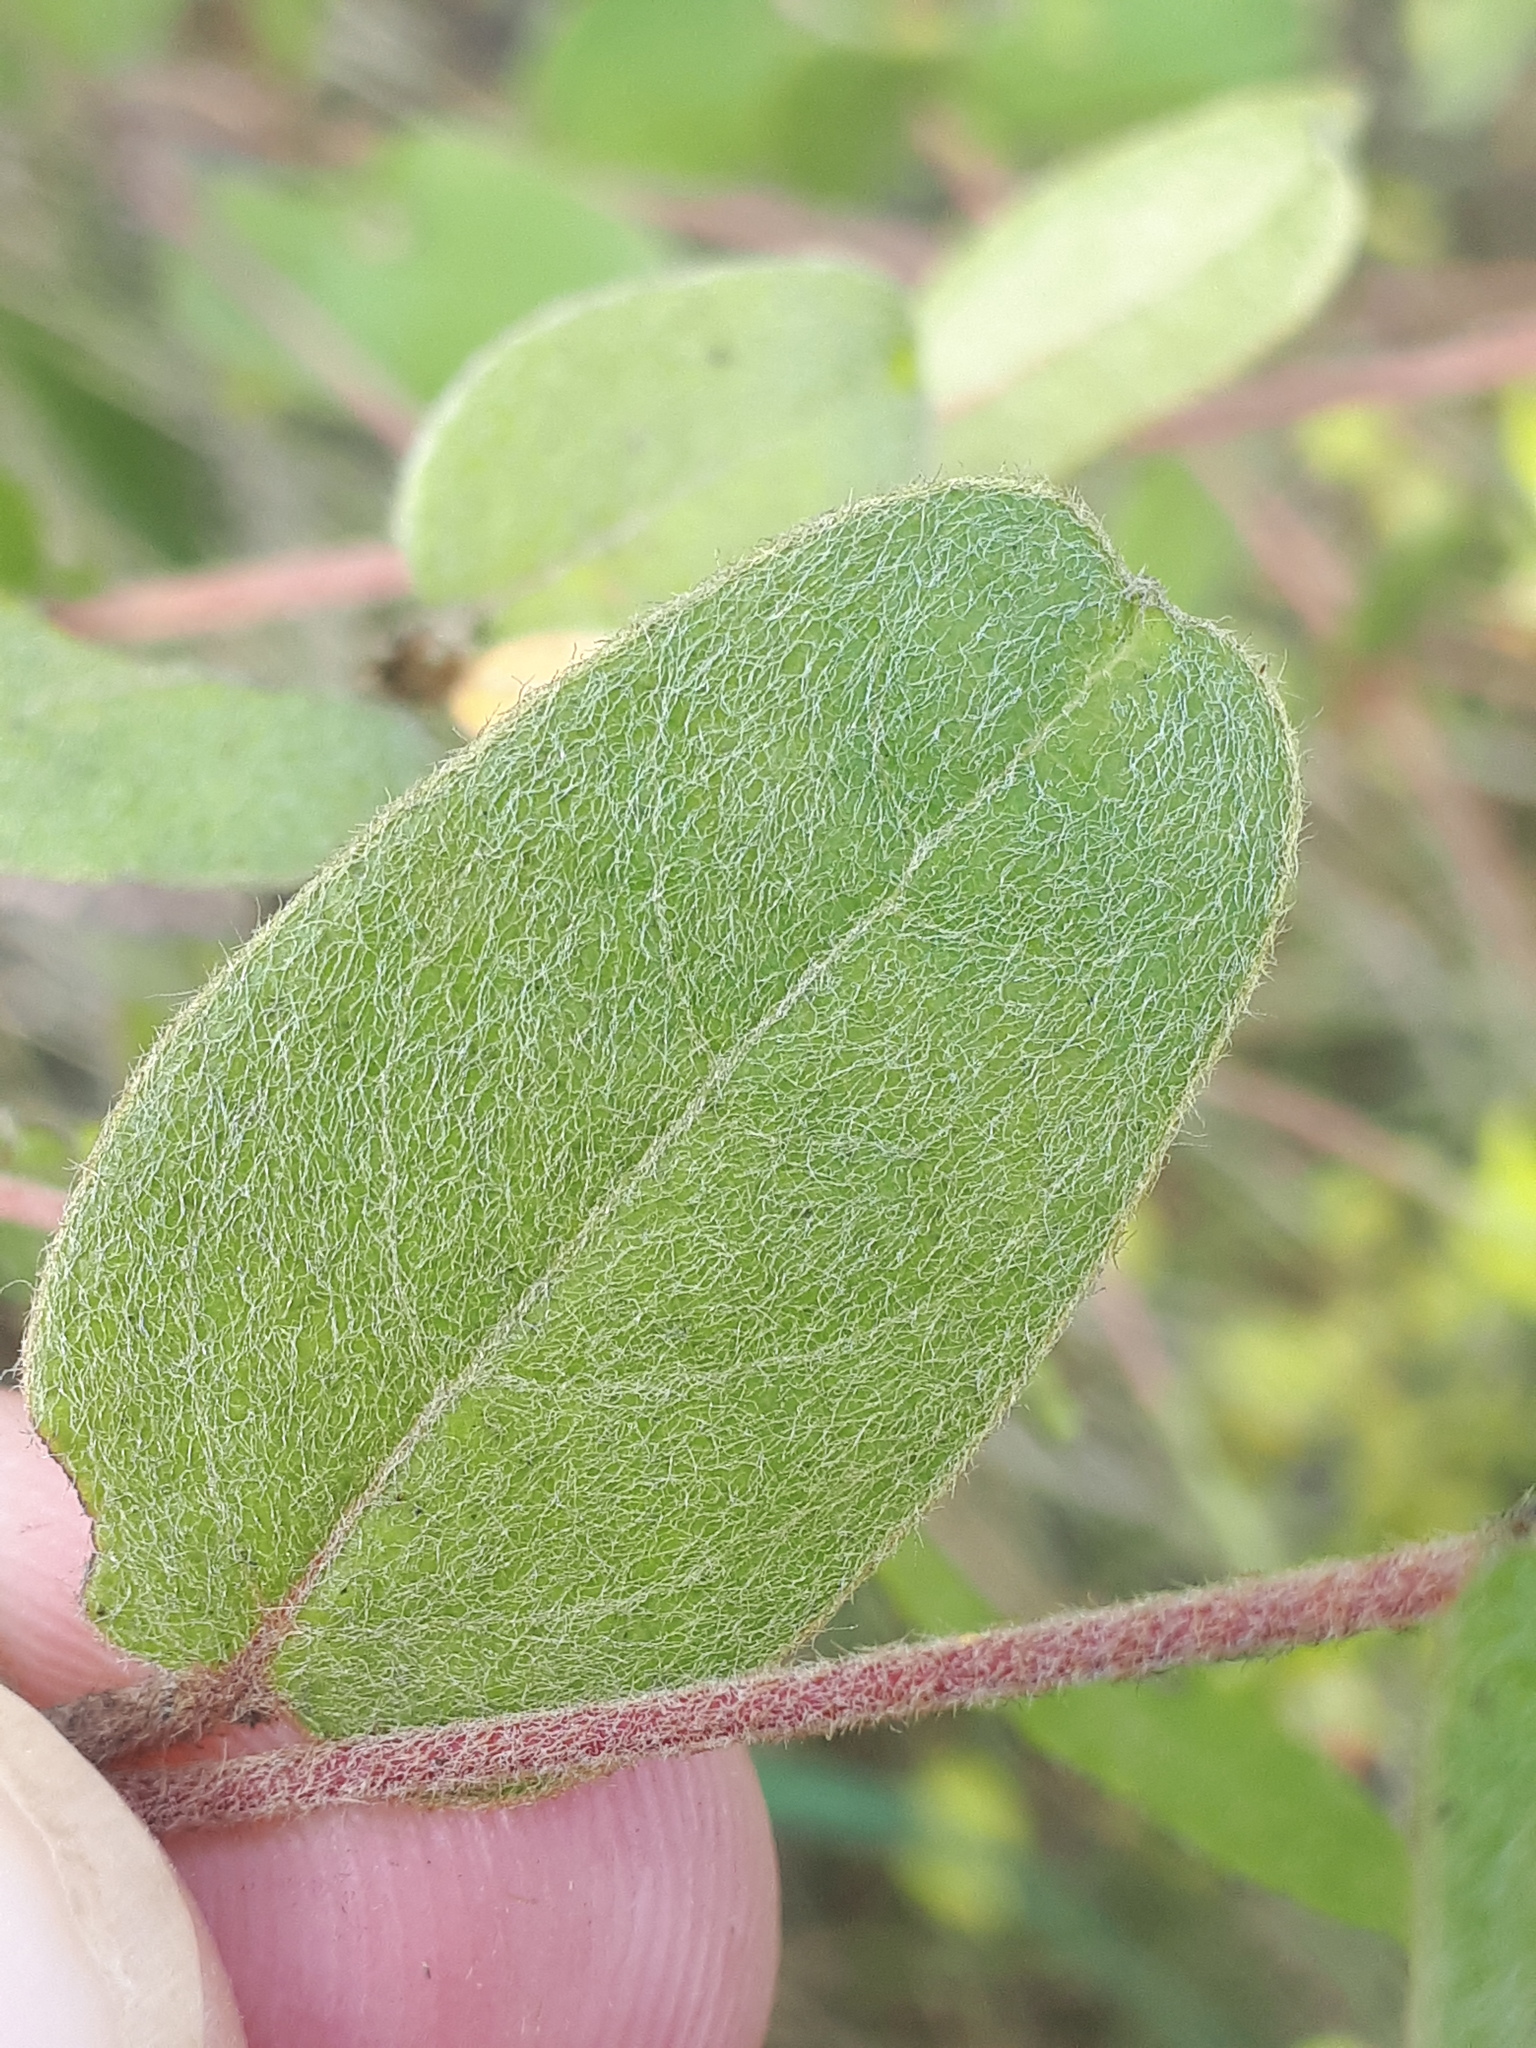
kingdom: Plantae
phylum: Tracheophyta
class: Magnoliopsida
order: Malpighiales
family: Malpighiaceae
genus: Sphedamnocarpus
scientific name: Sphedamnocarpus pruriens
